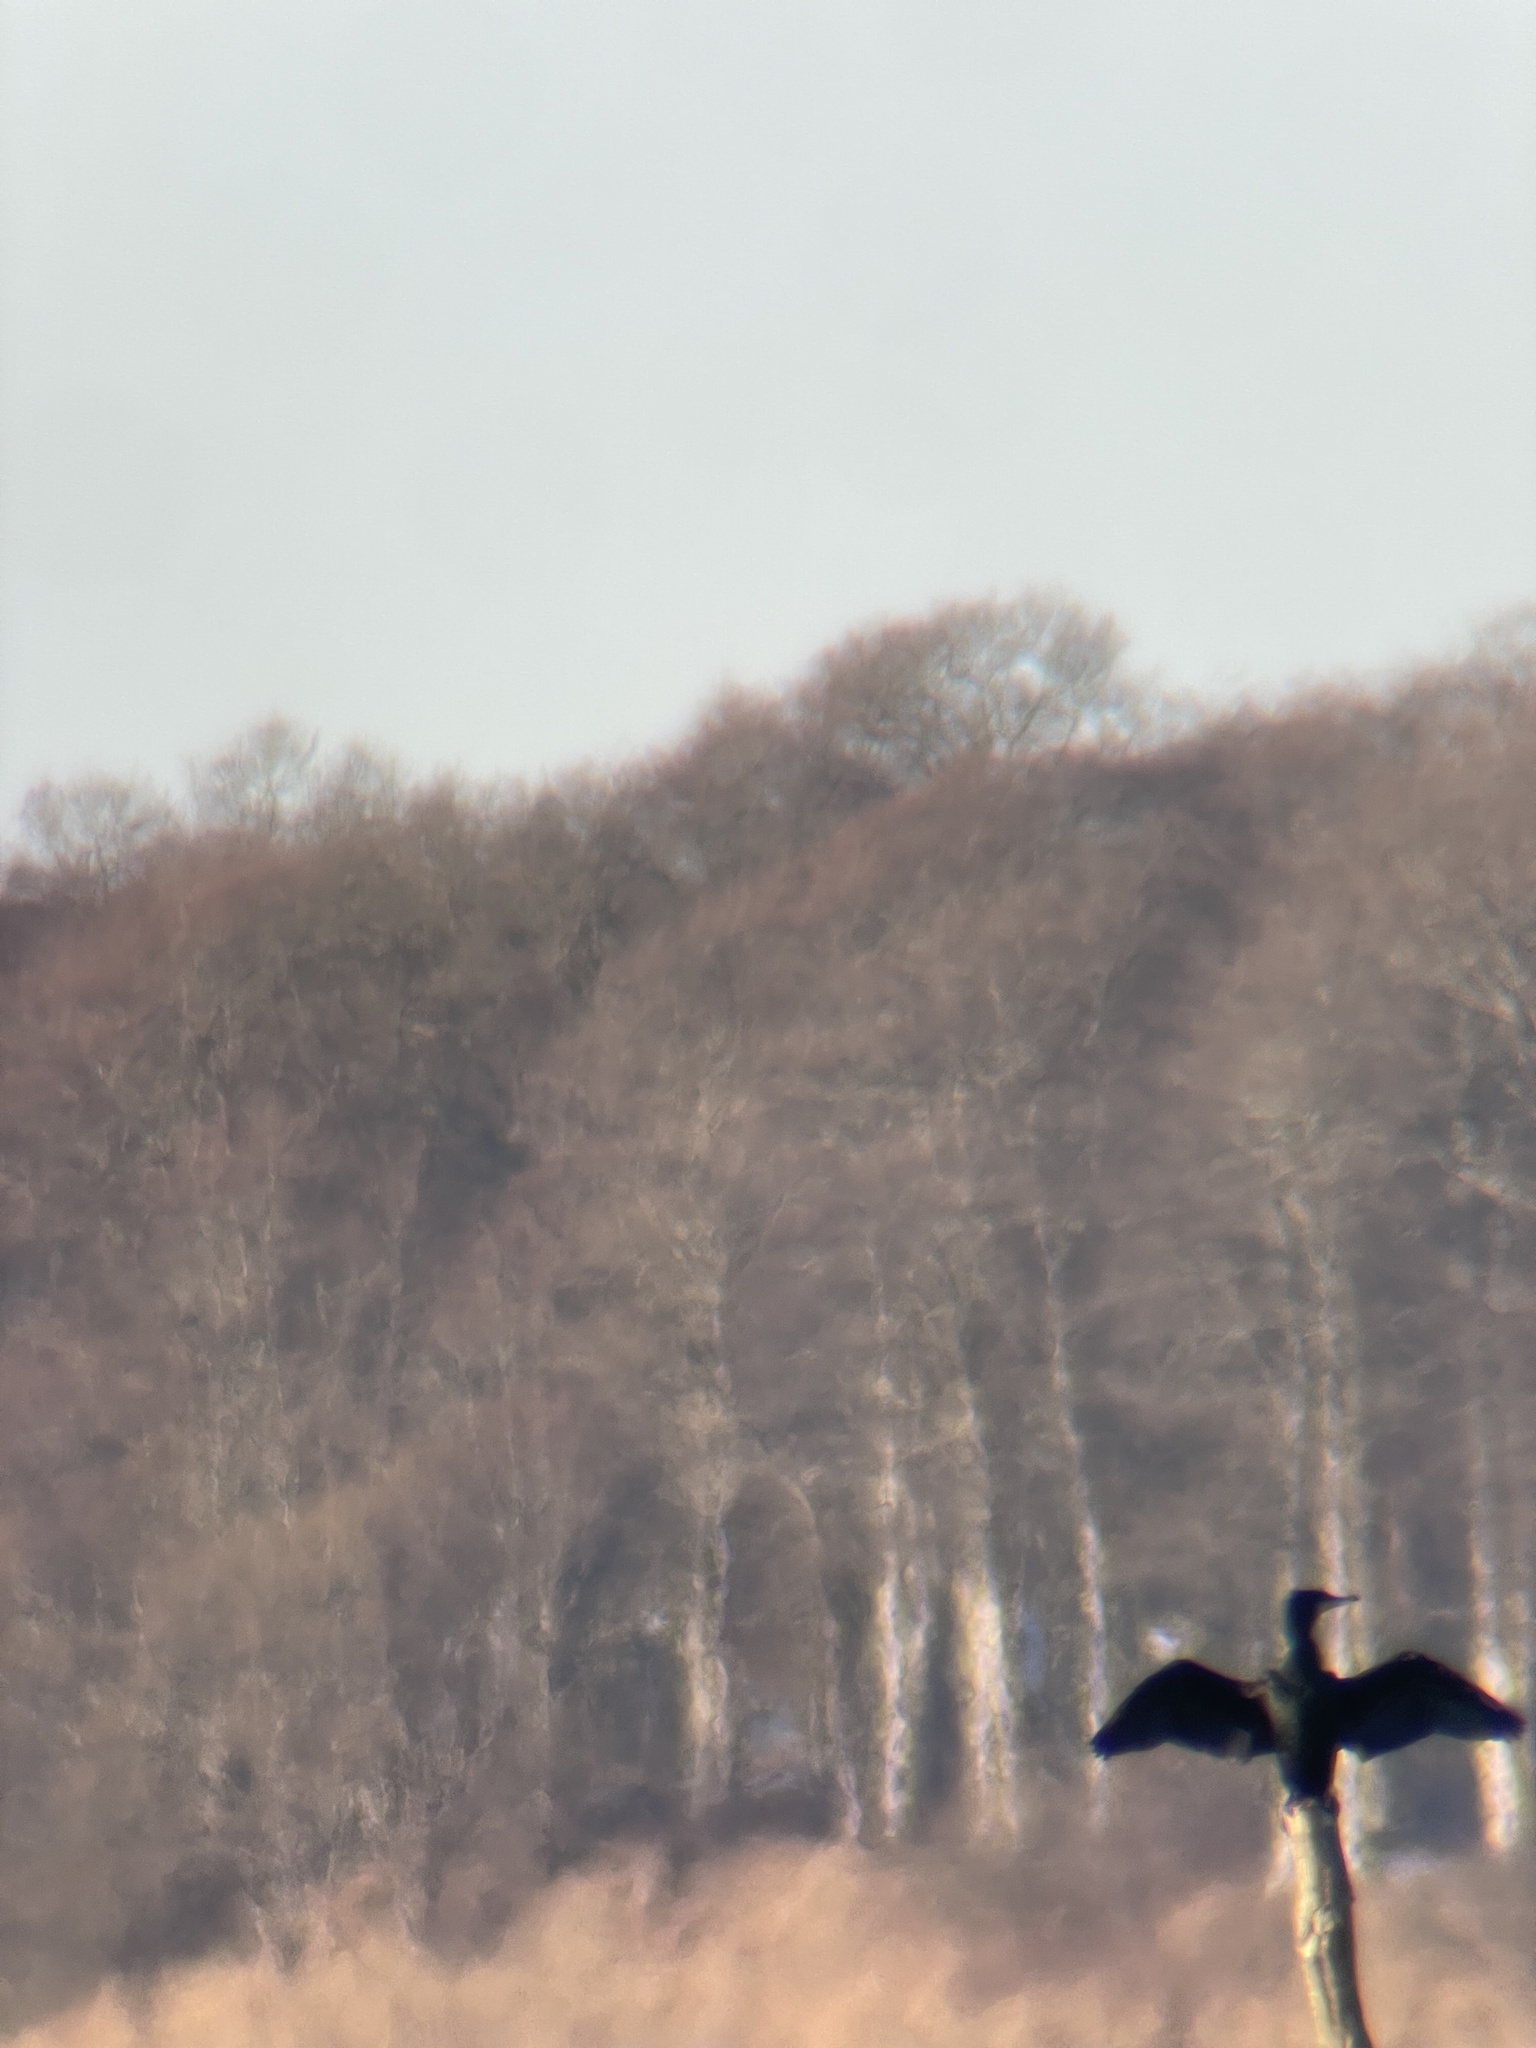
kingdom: Animalia
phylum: Chordata
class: Aves
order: Suliformes
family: Phalacrocoracidae
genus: Phalacrocorax
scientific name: Phalacrocorax carbo
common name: Great cormorant
